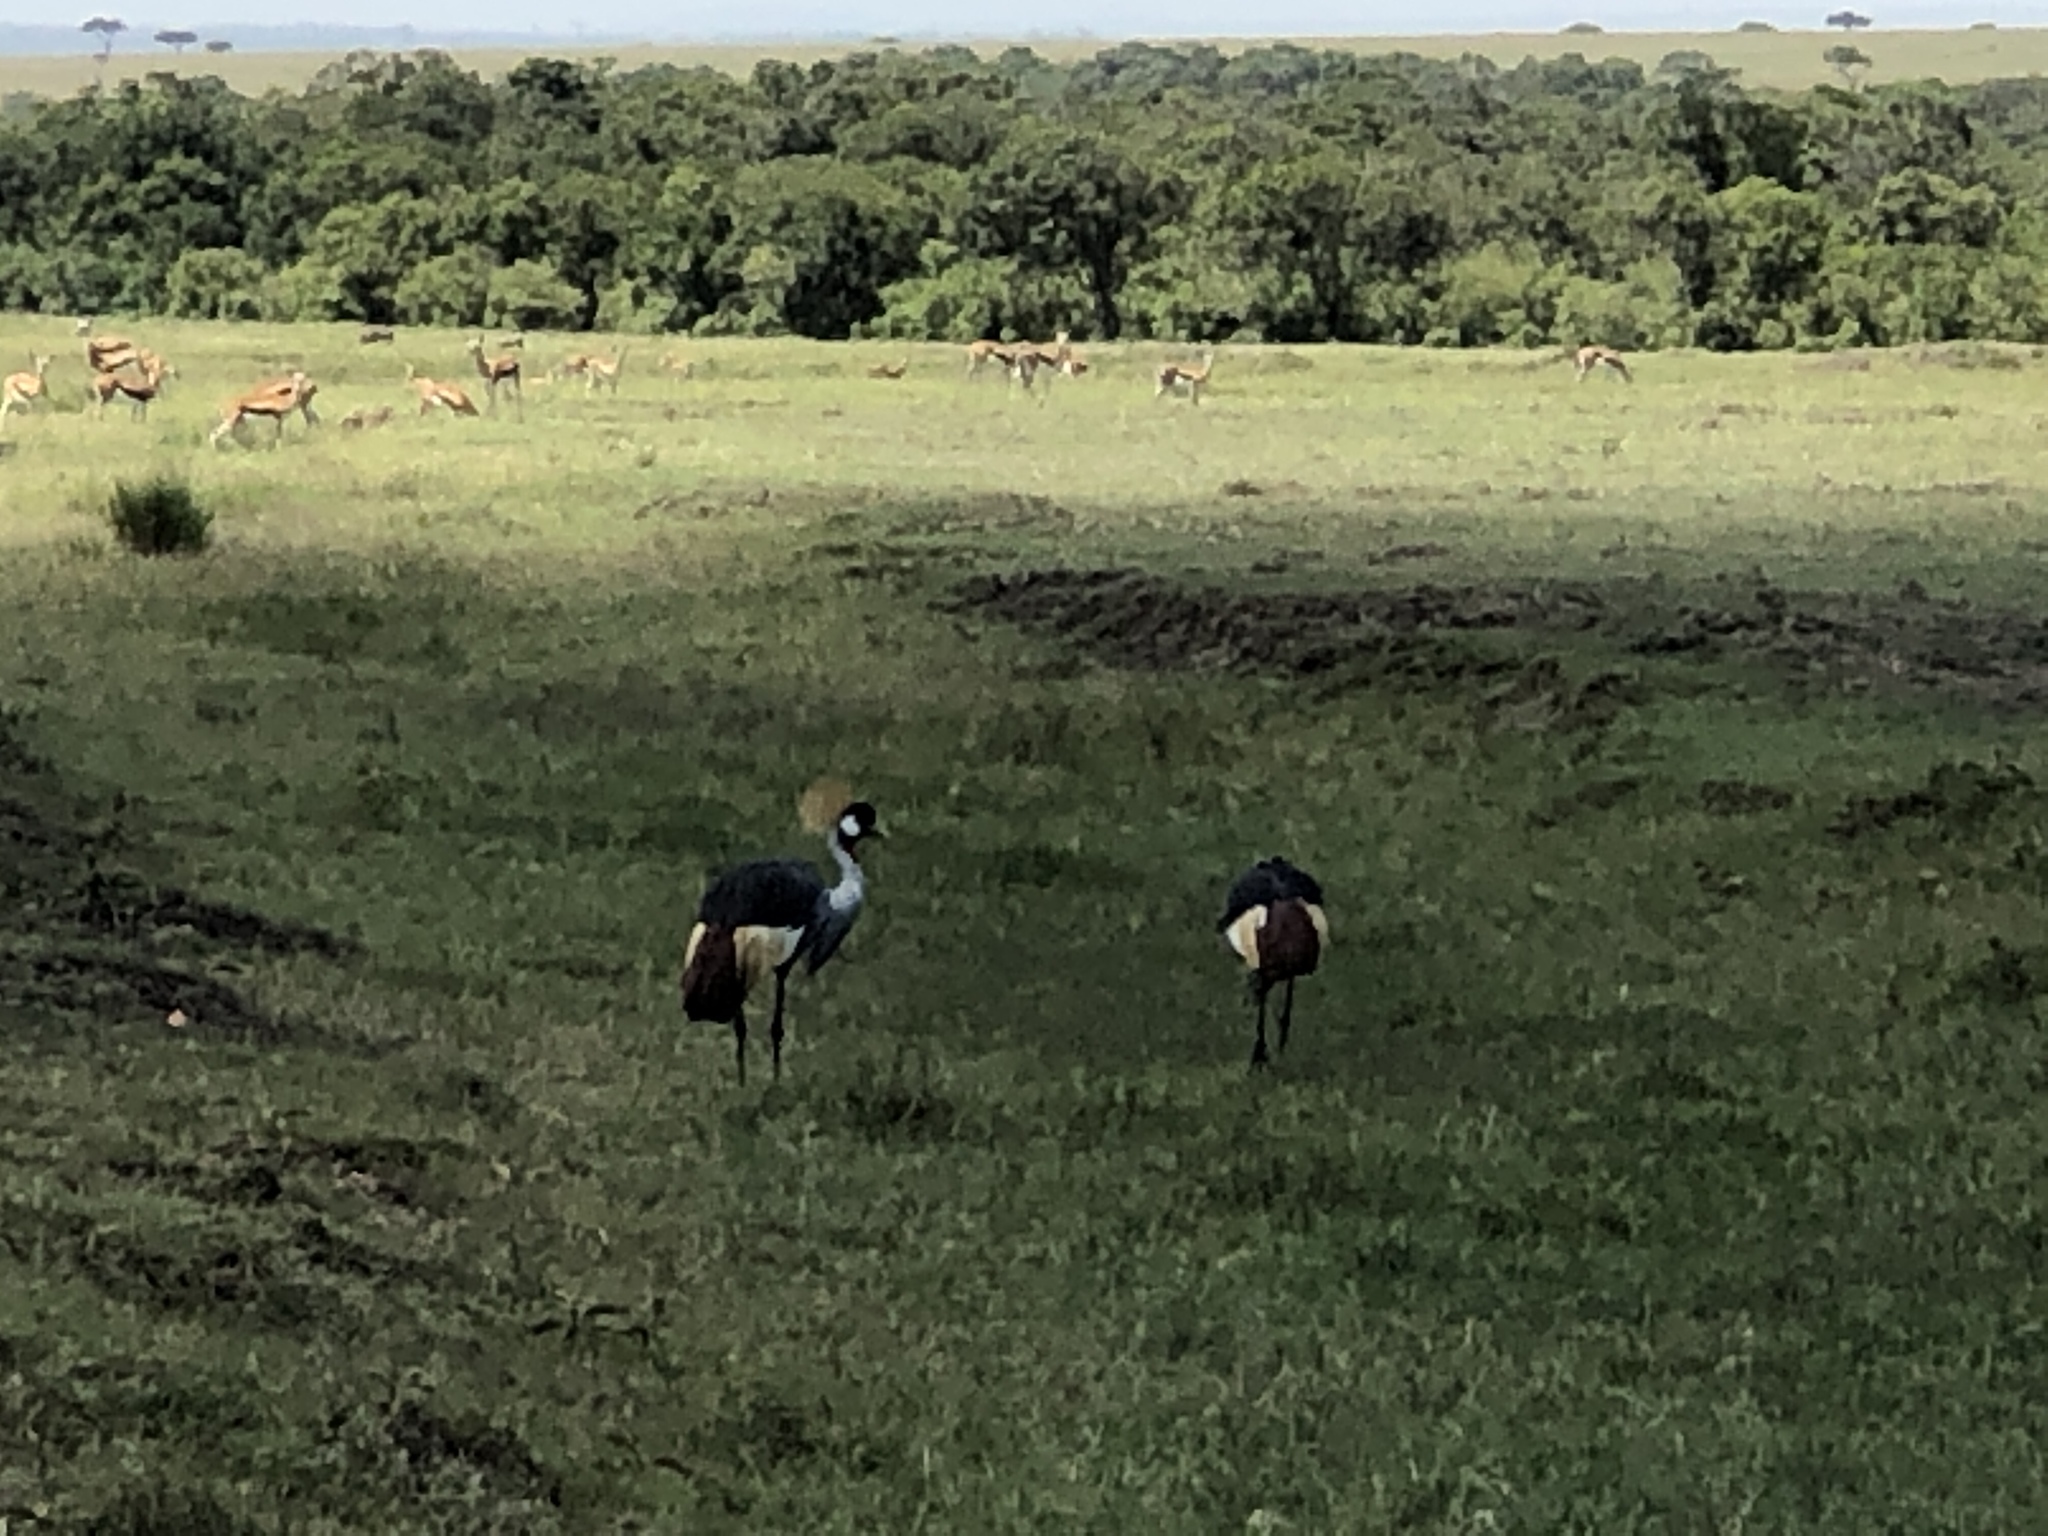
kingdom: Animalia
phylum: Chordata
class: Aves
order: Gruiformes
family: Gruidae
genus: Balearica
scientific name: Balearica regulorum
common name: Grey crowned crane
